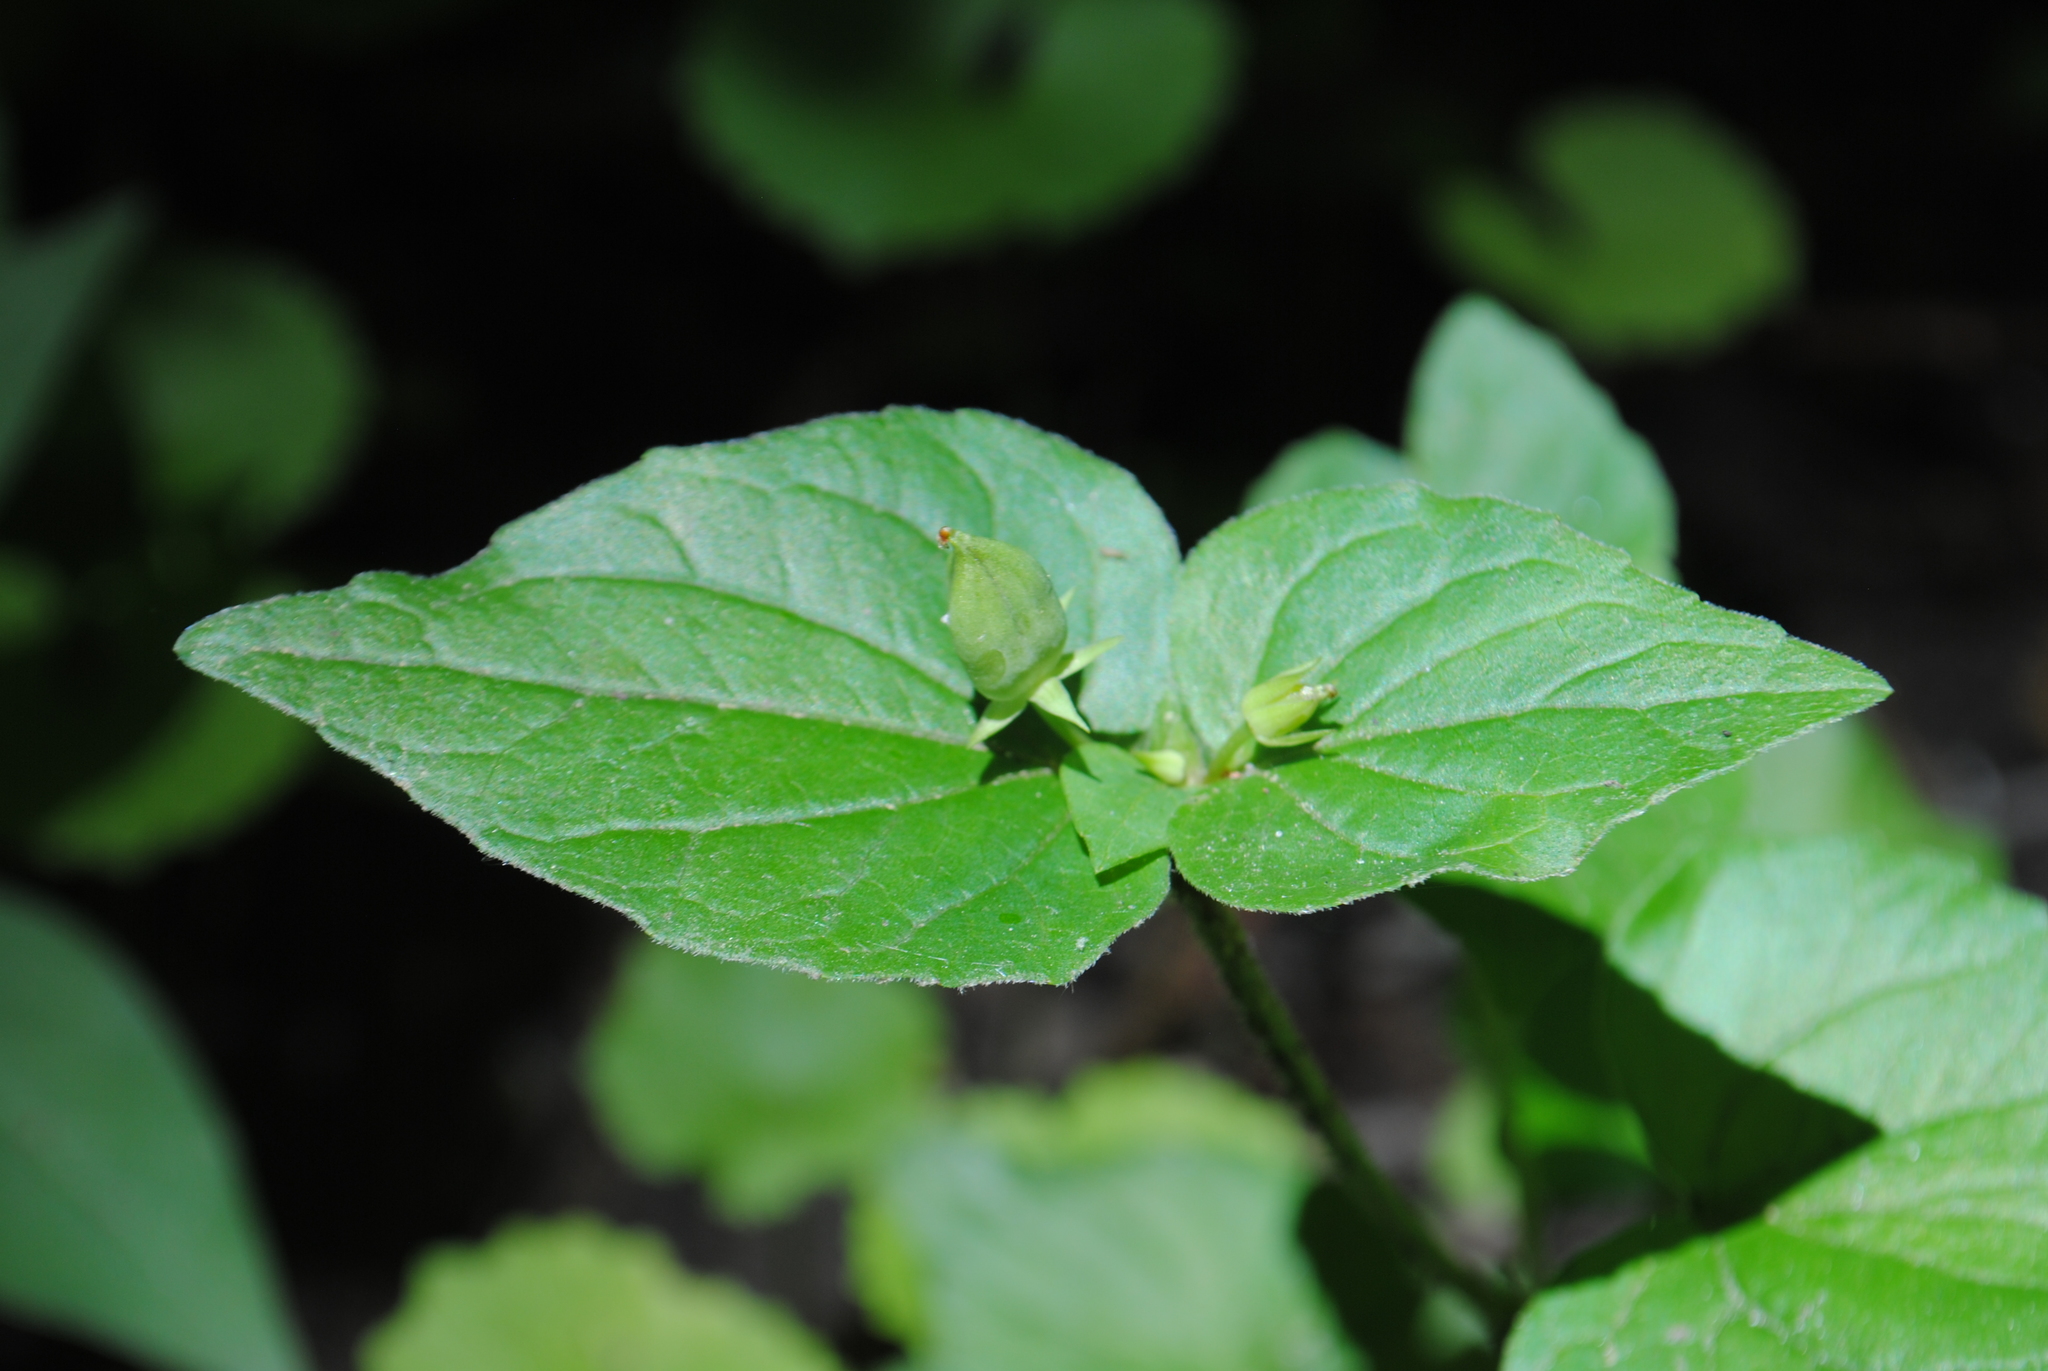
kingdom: Plantae
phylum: Tracheophyta
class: Magnoliopsida
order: Malpighiales
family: Violaceae
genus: Viola
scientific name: Viola eriocarpa
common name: Smooth yellow violet
